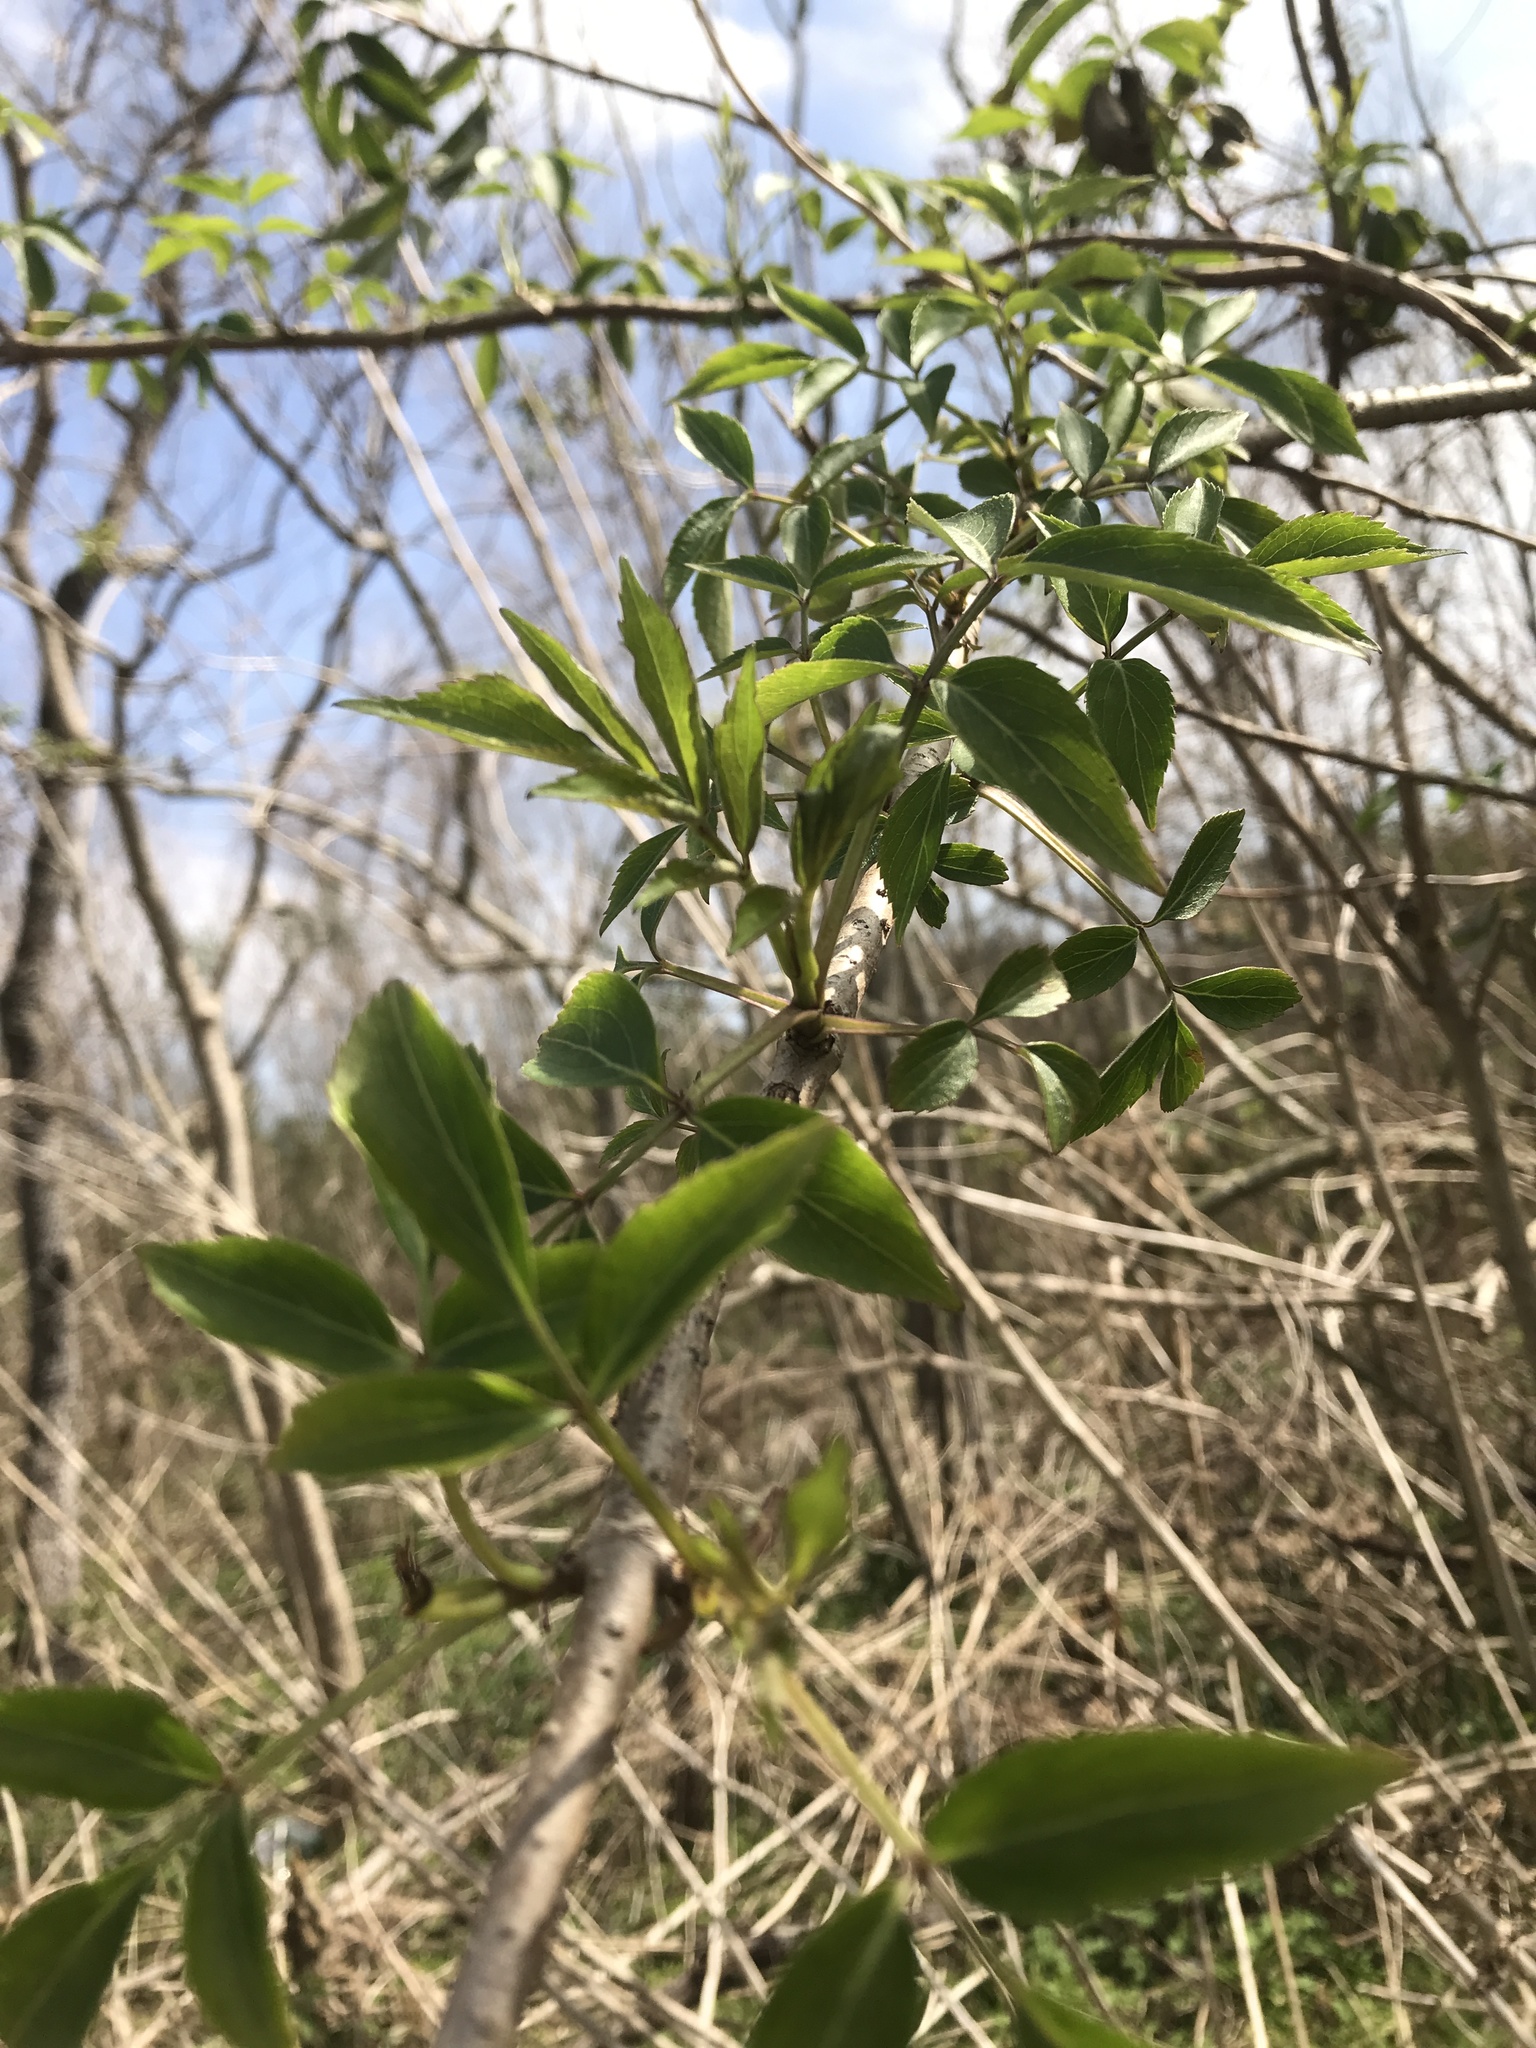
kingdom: Plantae
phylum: Tracheophyta
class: Magnoliopsida
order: Dipsacales
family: Viburnaceae
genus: Sambucus
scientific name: Sambucus canadensis
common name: American elder
